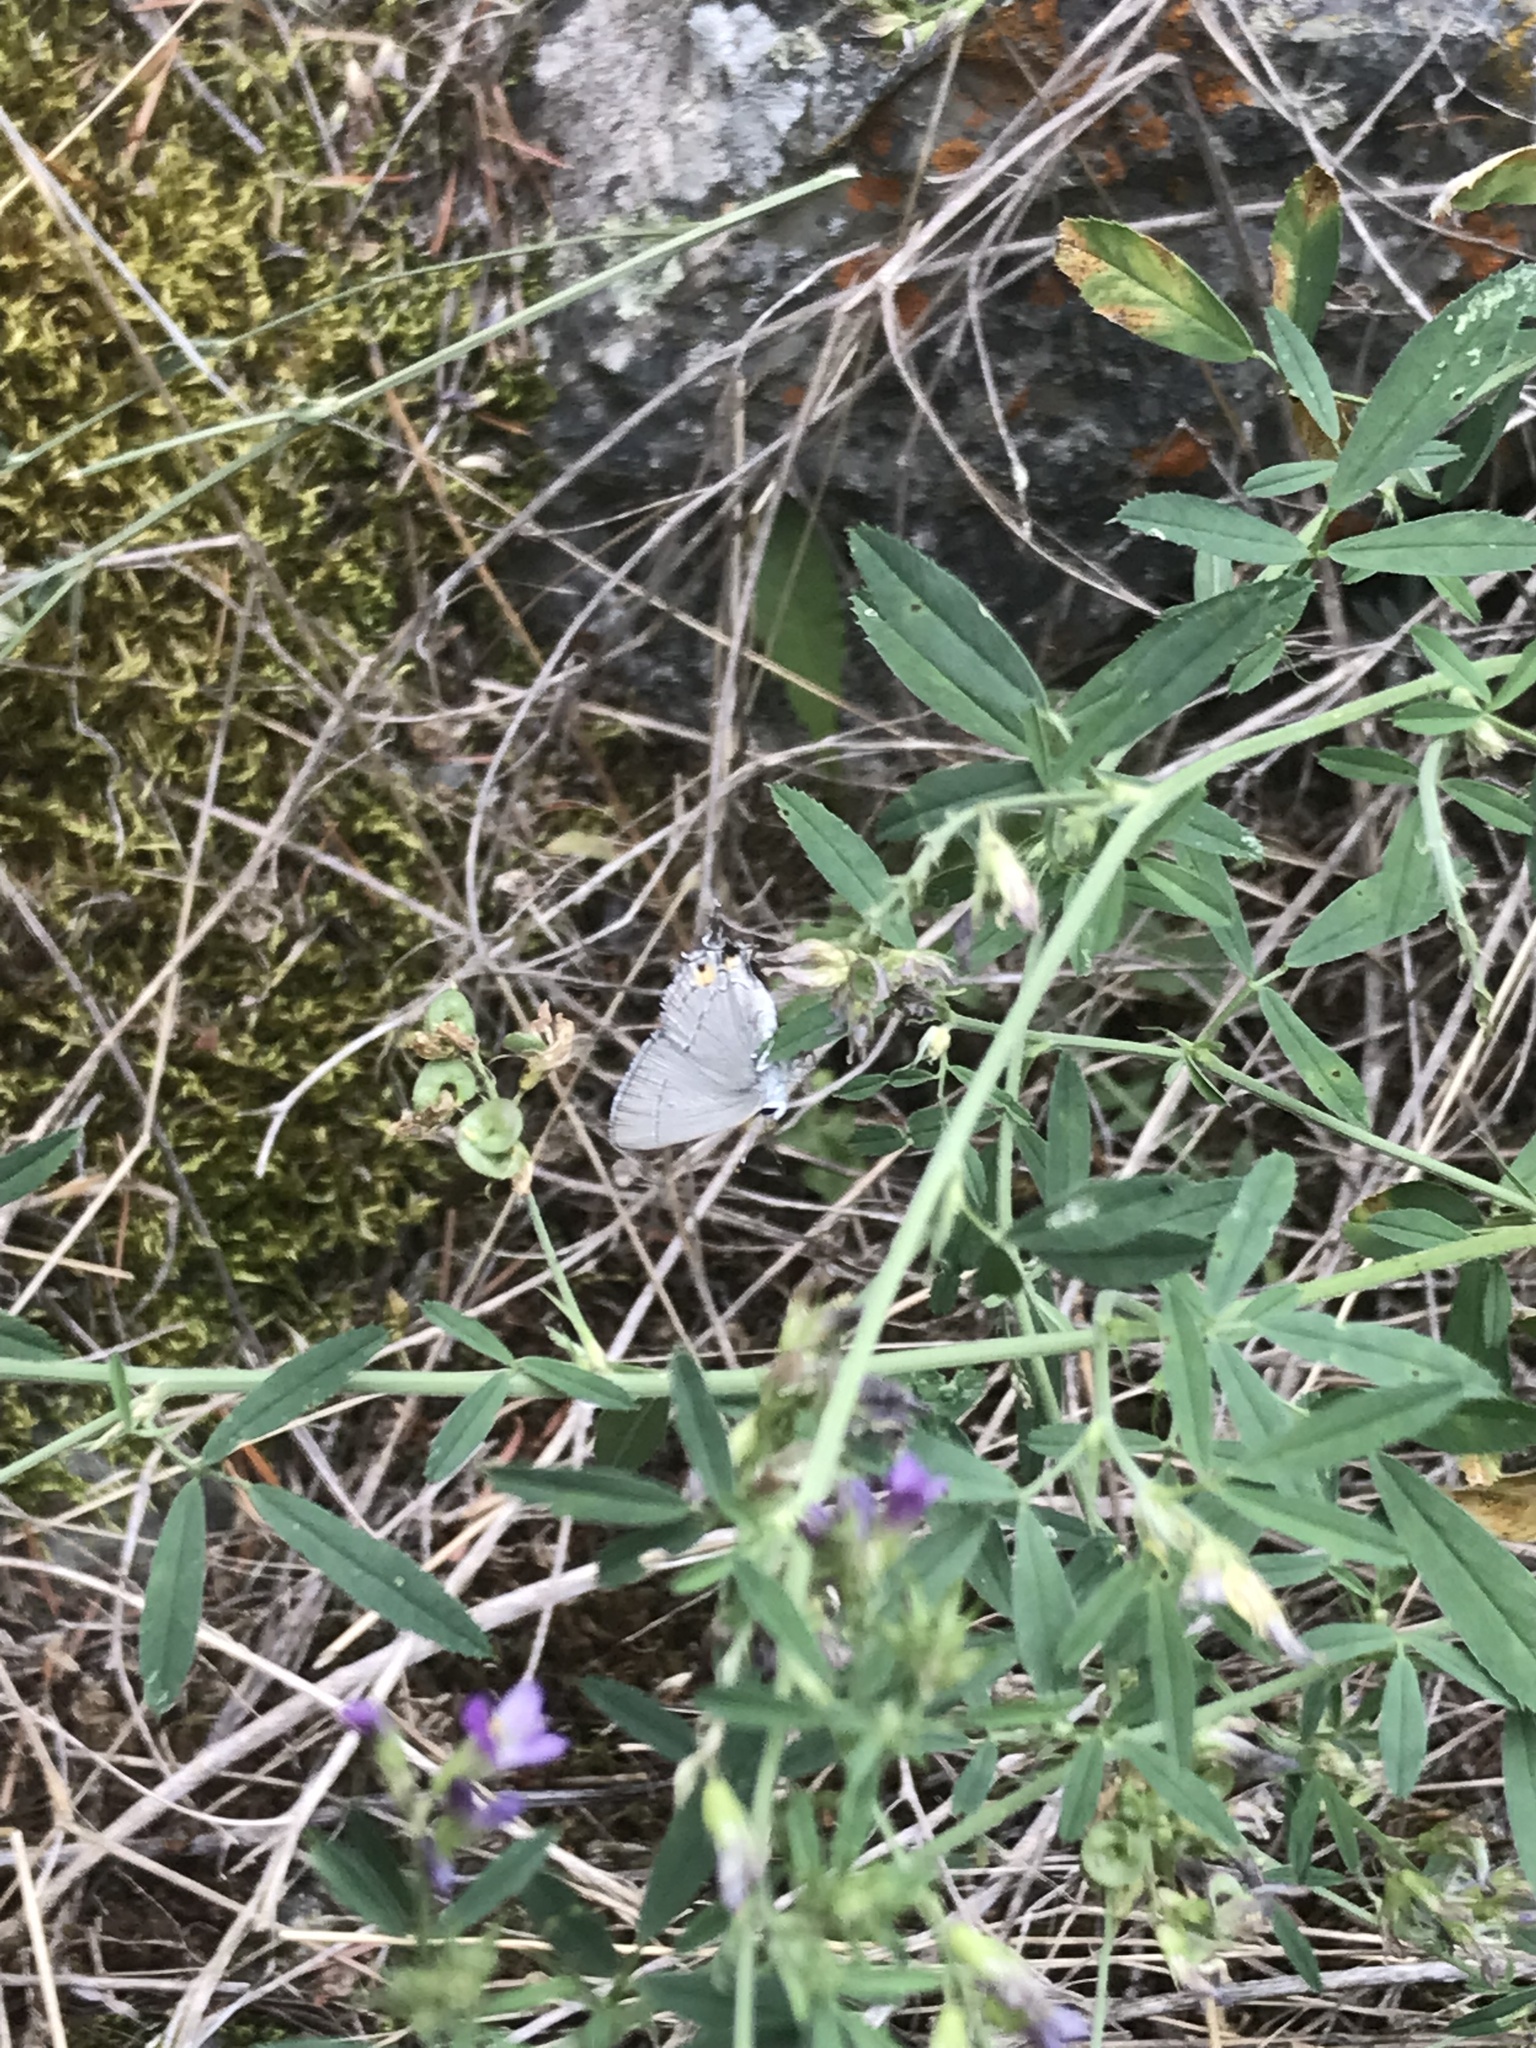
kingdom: Animalia
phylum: Arthropoda
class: Insecta
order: Lepidoptera
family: Lycaenidae
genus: Strymon
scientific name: Strymon melinus
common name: Gray hairstreak
